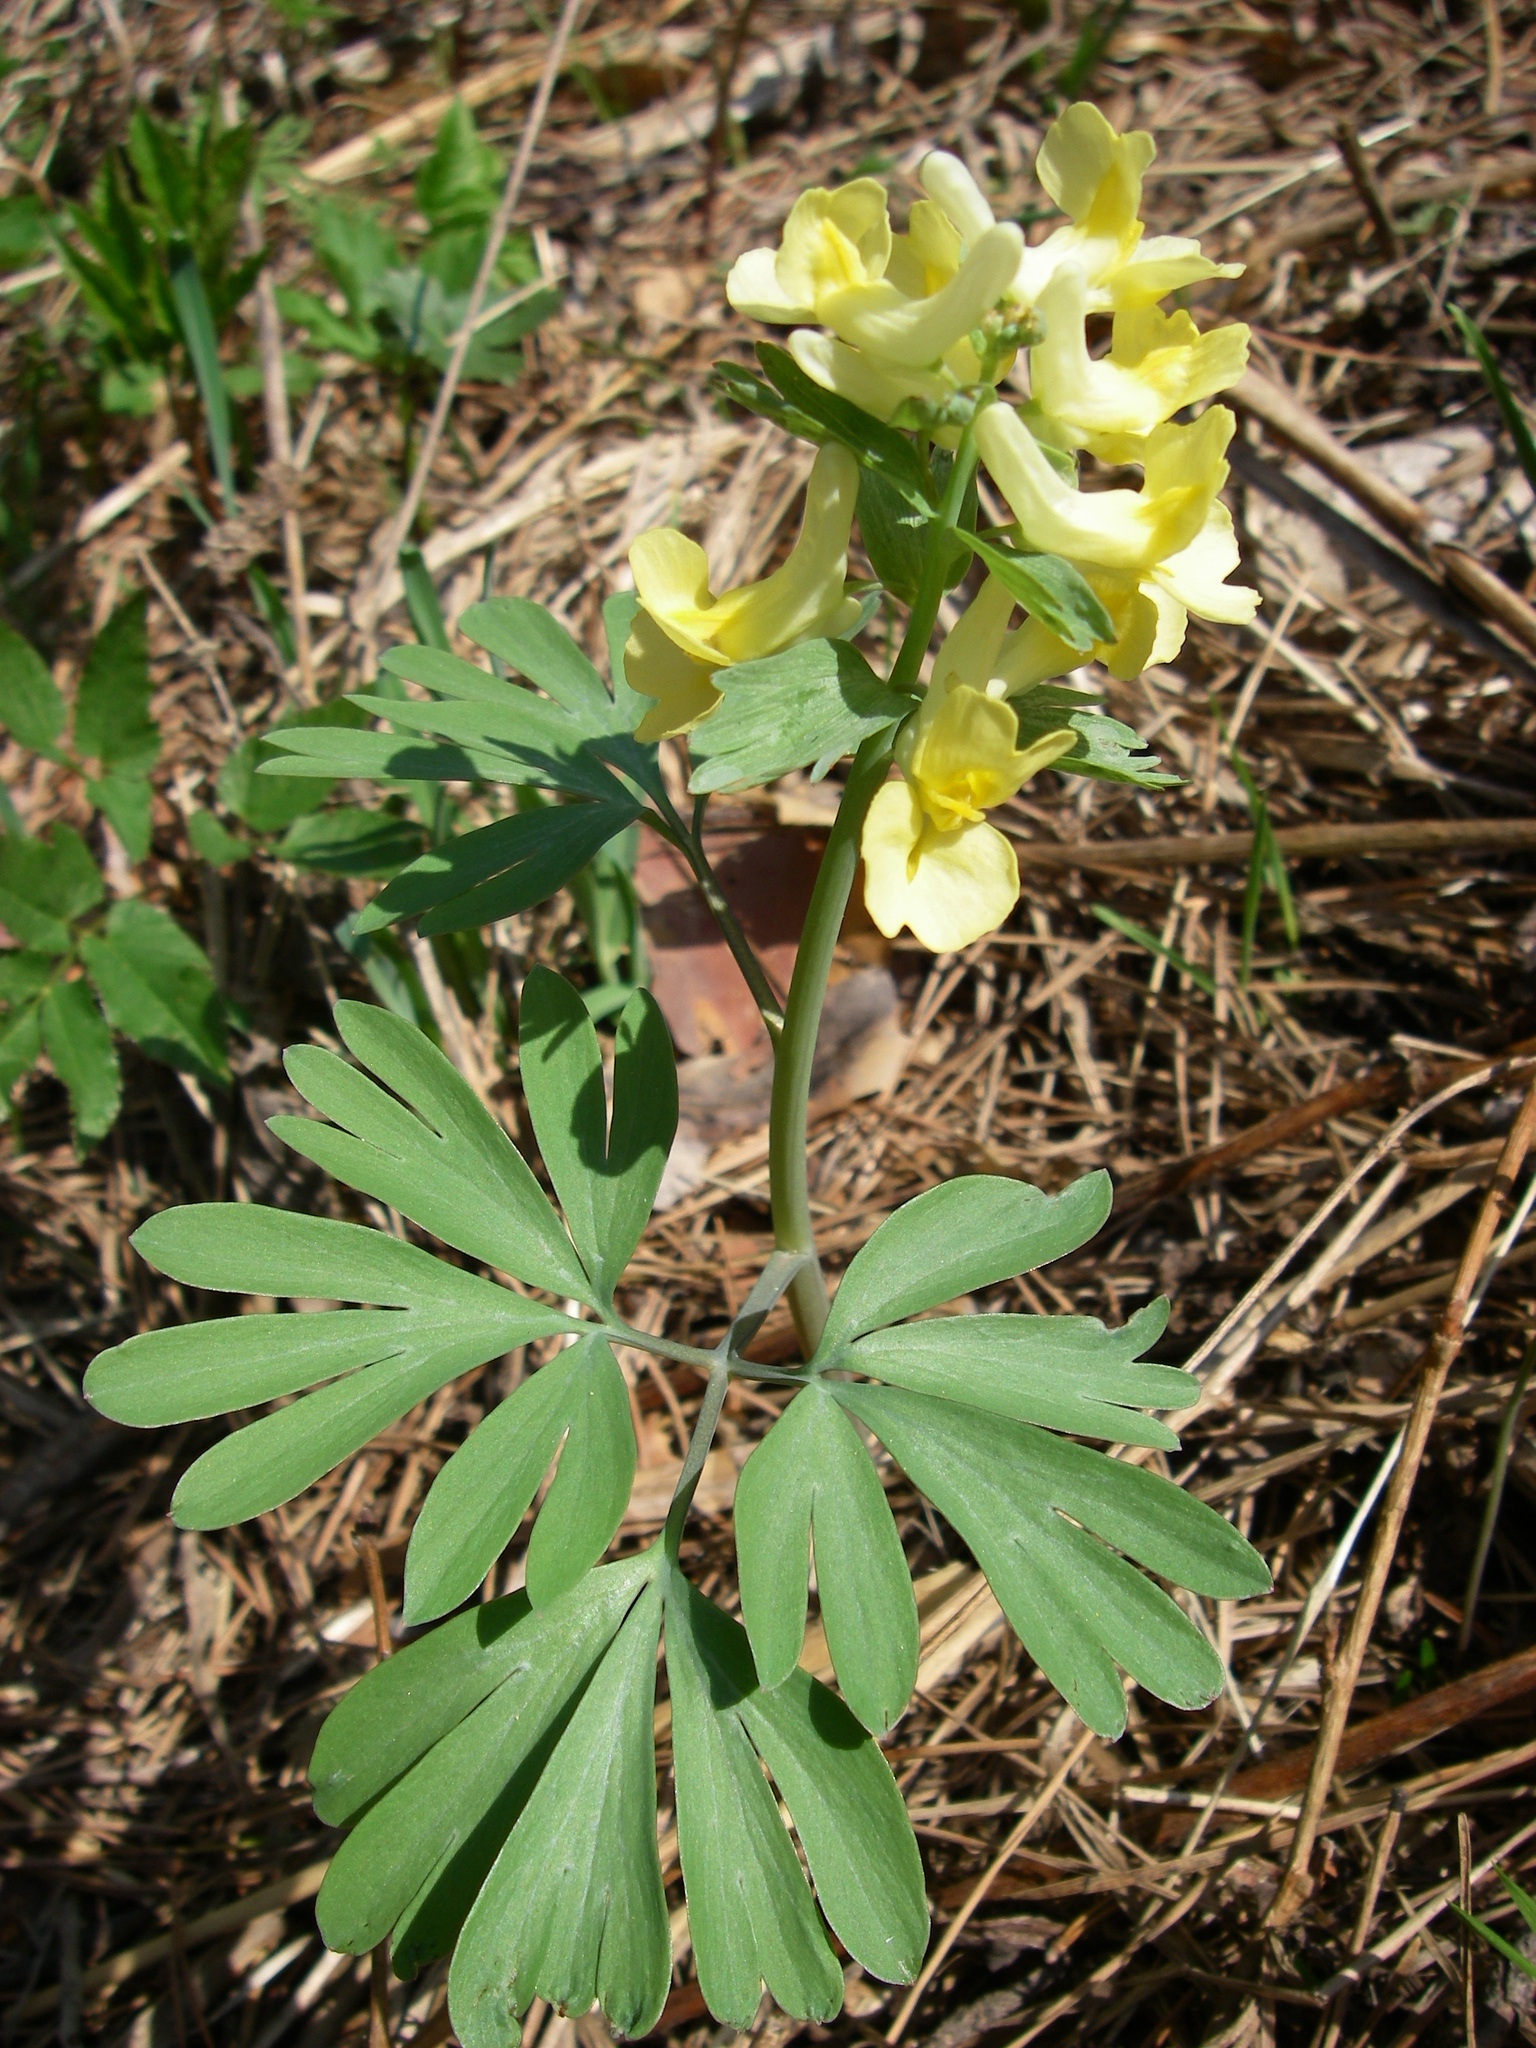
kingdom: Plantae
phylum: Tracheophyta
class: Magnoliopsida
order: Ranunculales
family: Papaveraceae
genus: Corydalis
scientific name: Corydalis bracteata
